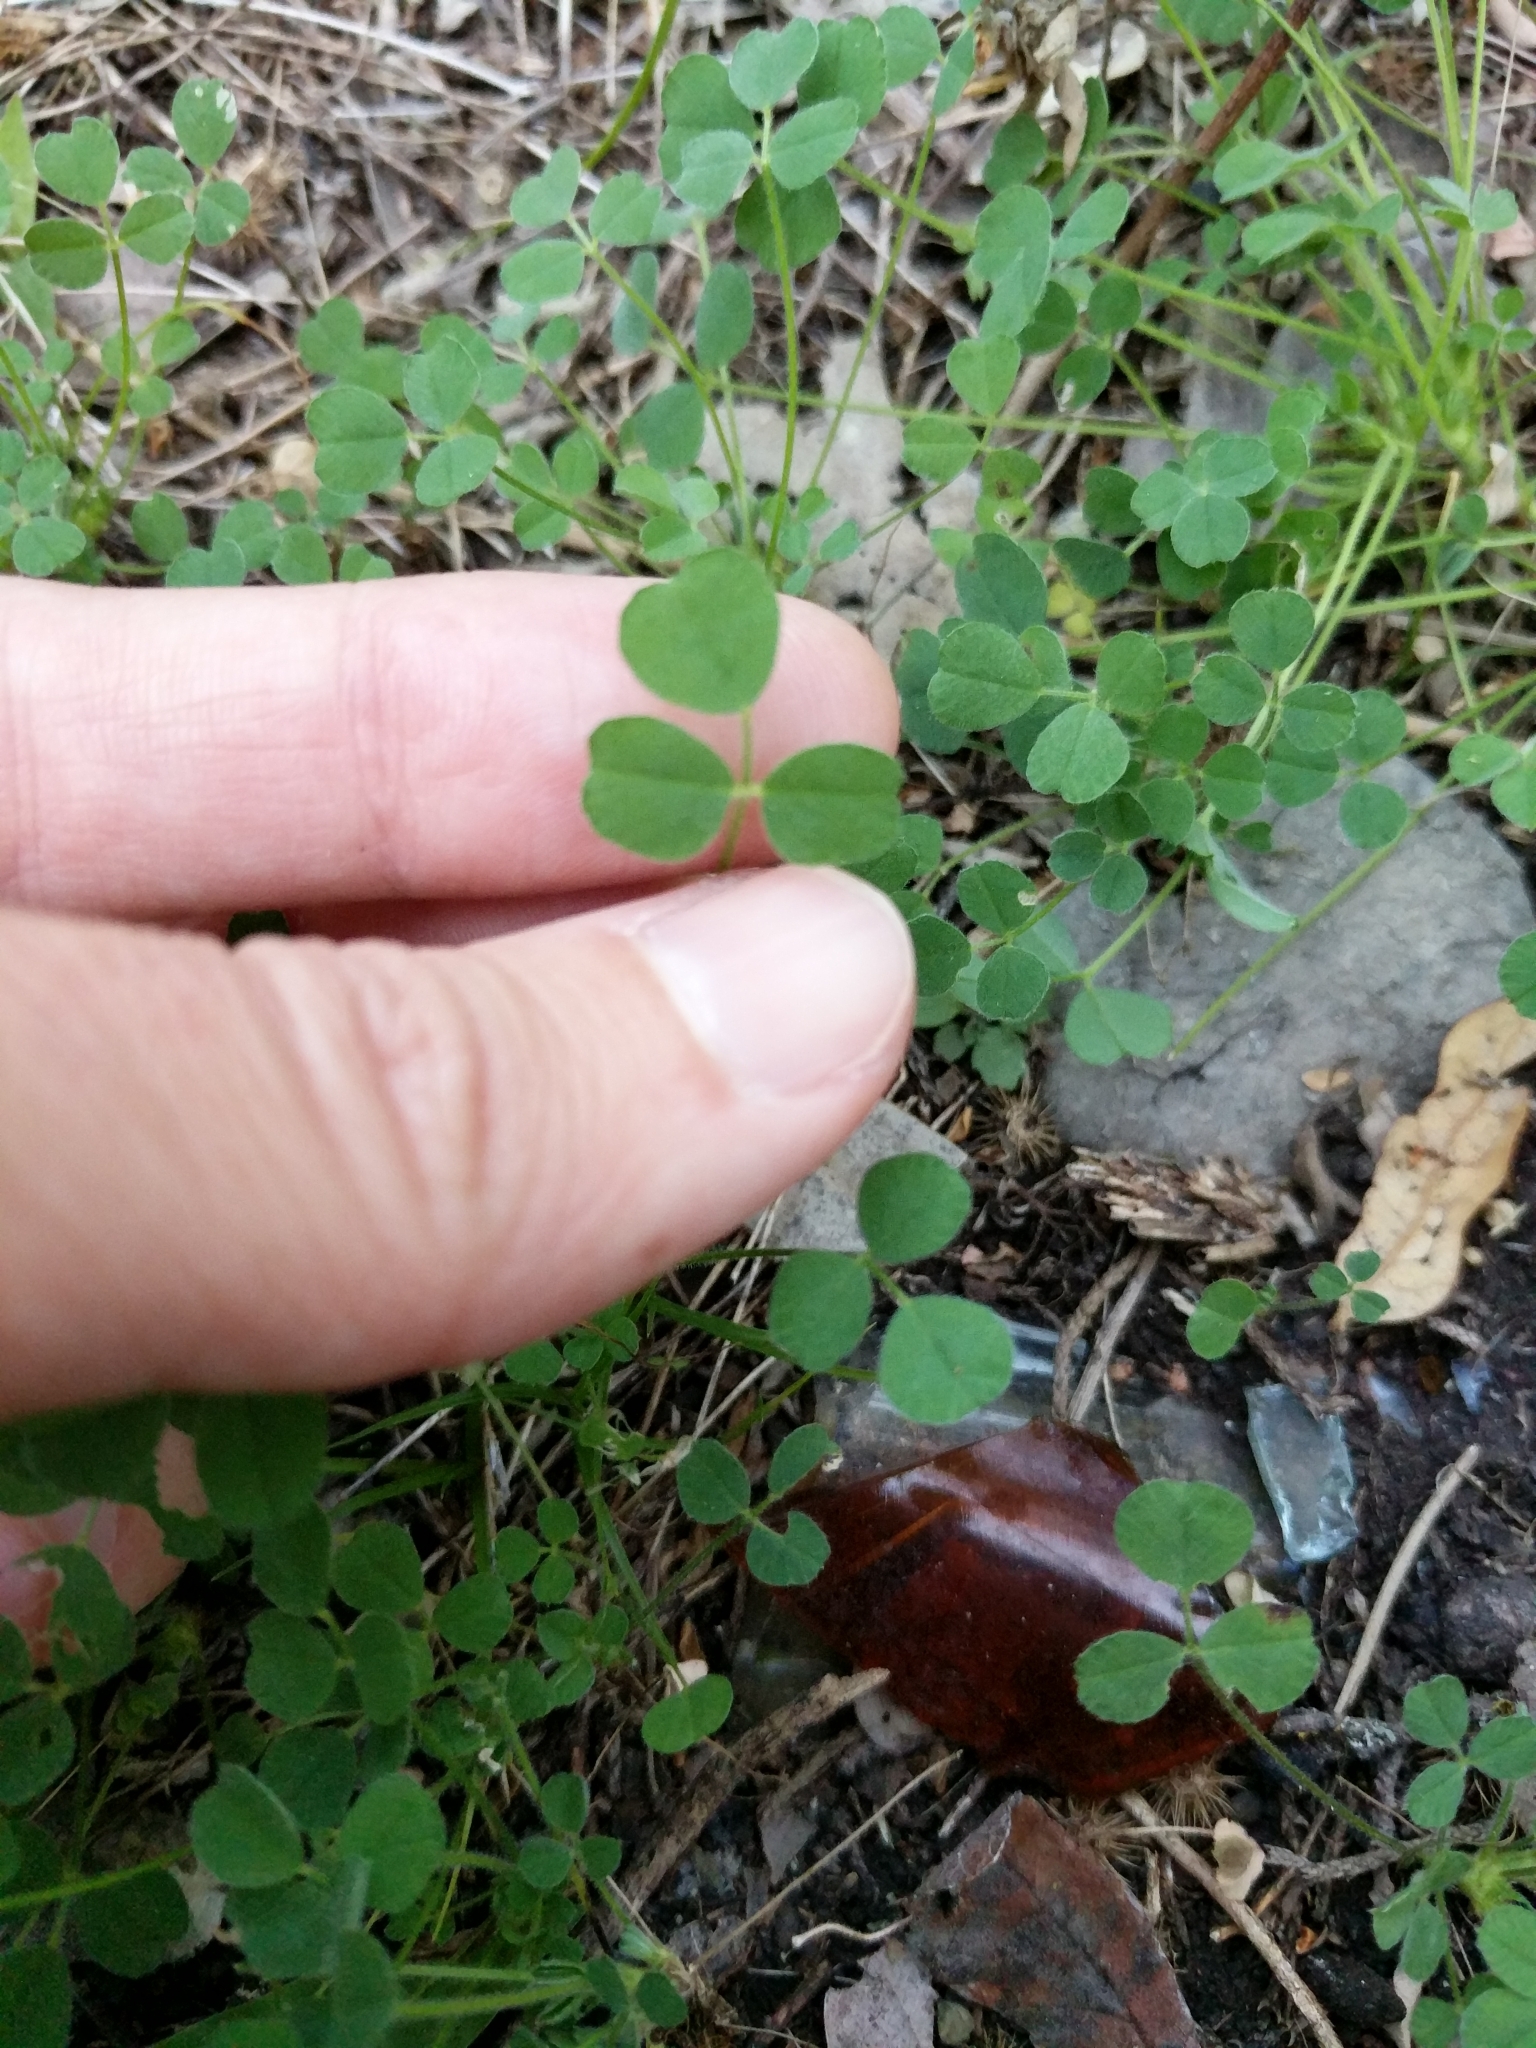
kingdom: Plantae
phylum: Tracheophyta
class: Magnoliopsida
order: Fabales
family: Fabaceae
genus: Medicago
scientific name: Medicago minima
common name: Little bur-clover
